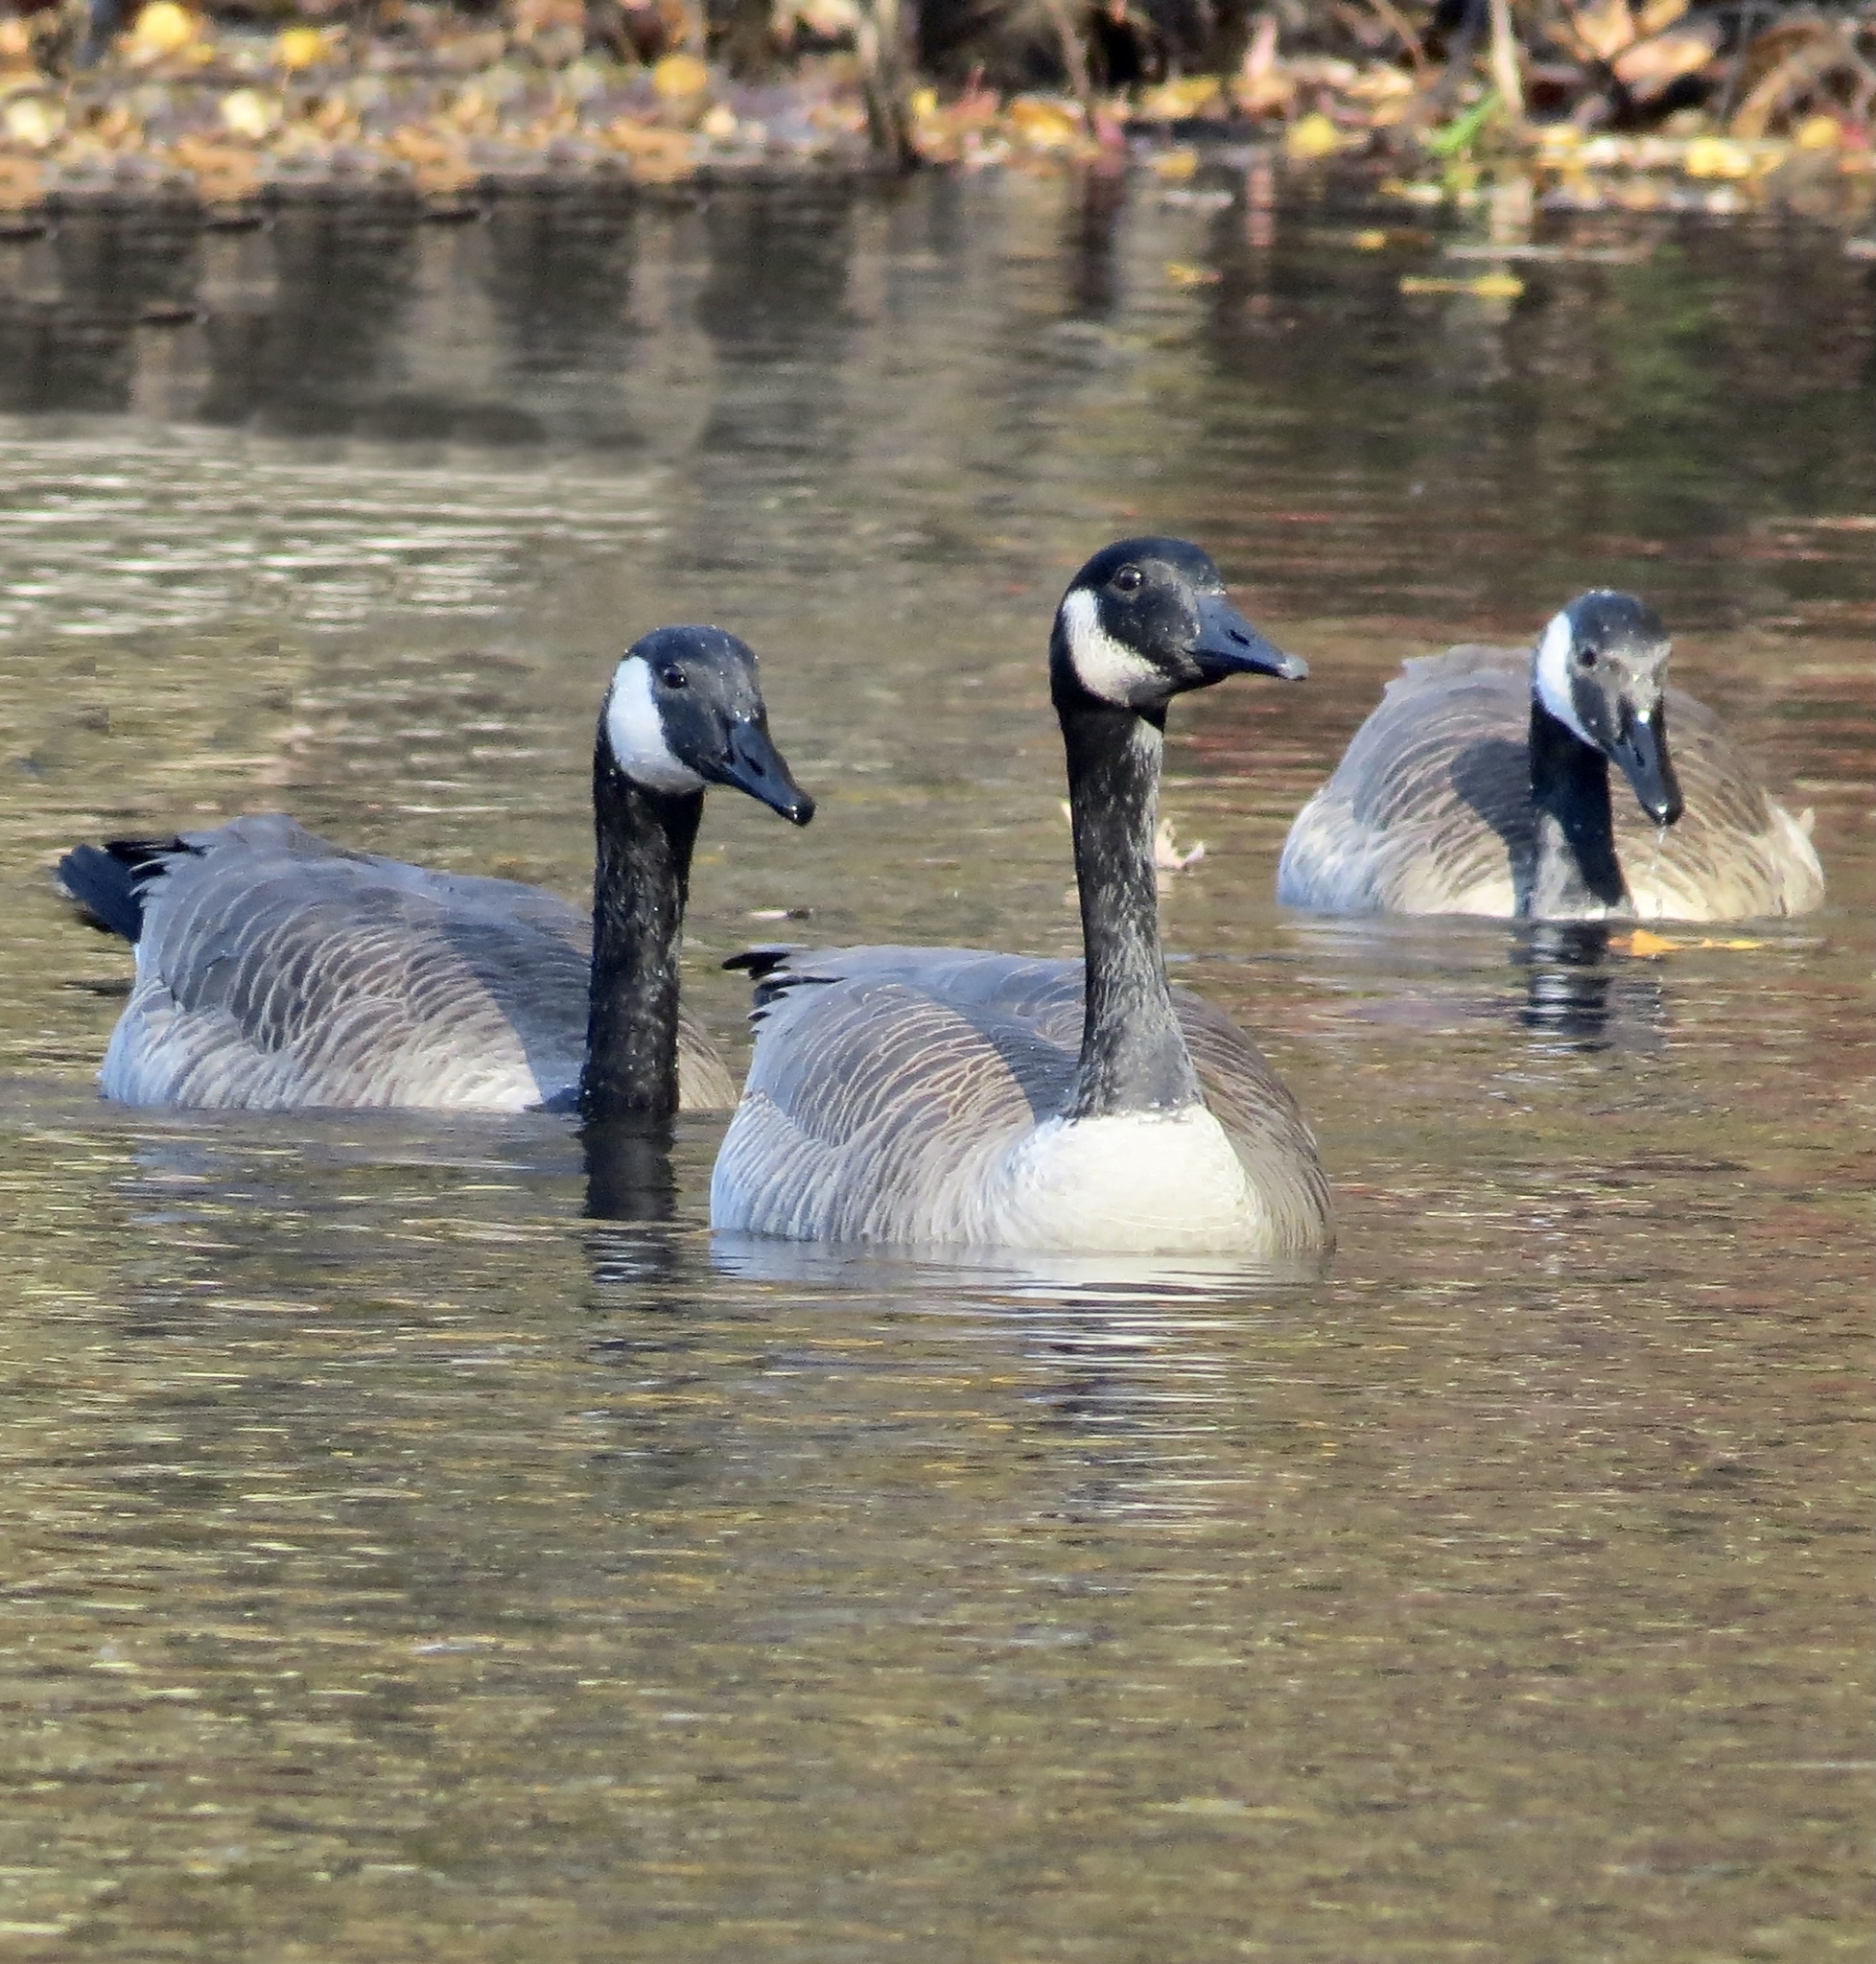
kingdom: Animalia
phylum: Chordata
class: Aves
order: Anseriformes
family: Anatidae
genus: Branta
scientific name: Branta canadensis
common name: Canada goose
